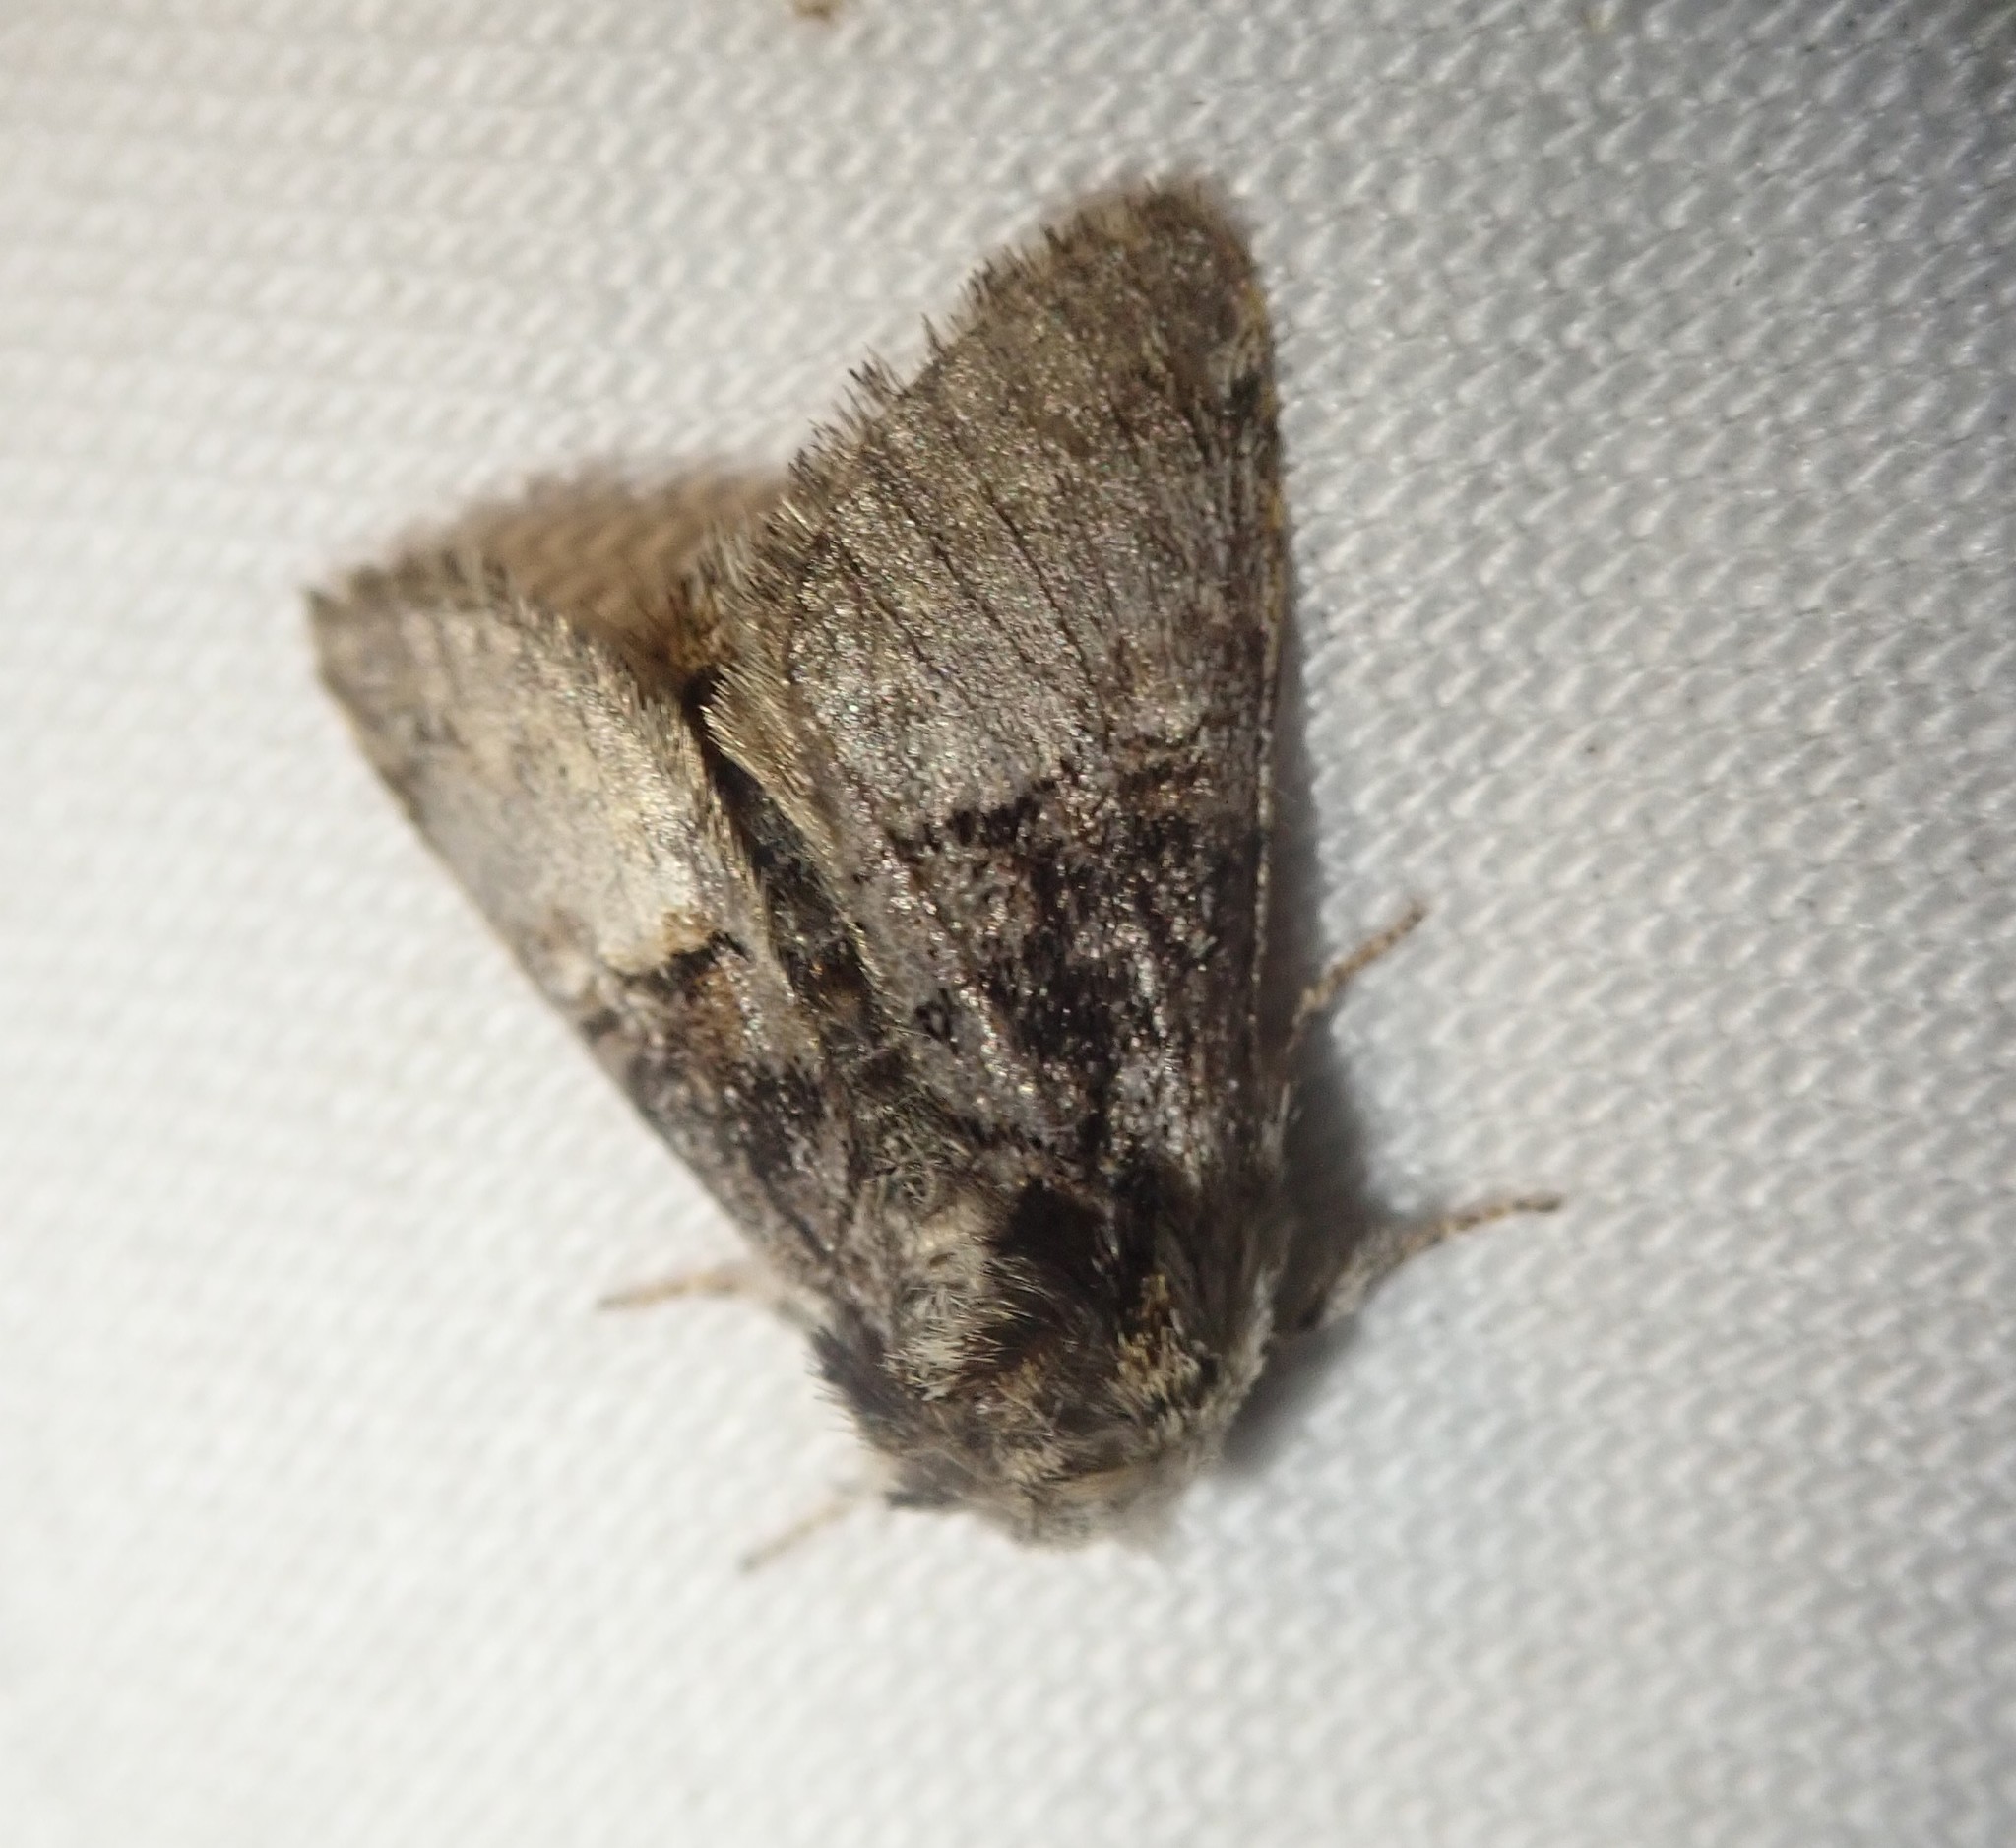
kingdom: Animalia
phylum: Arthropoda
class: Insecta
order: Lepidoptera
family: Noctuidae
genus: Colocasia
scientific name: Colocasia coryli
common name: Nut-tree tussock
